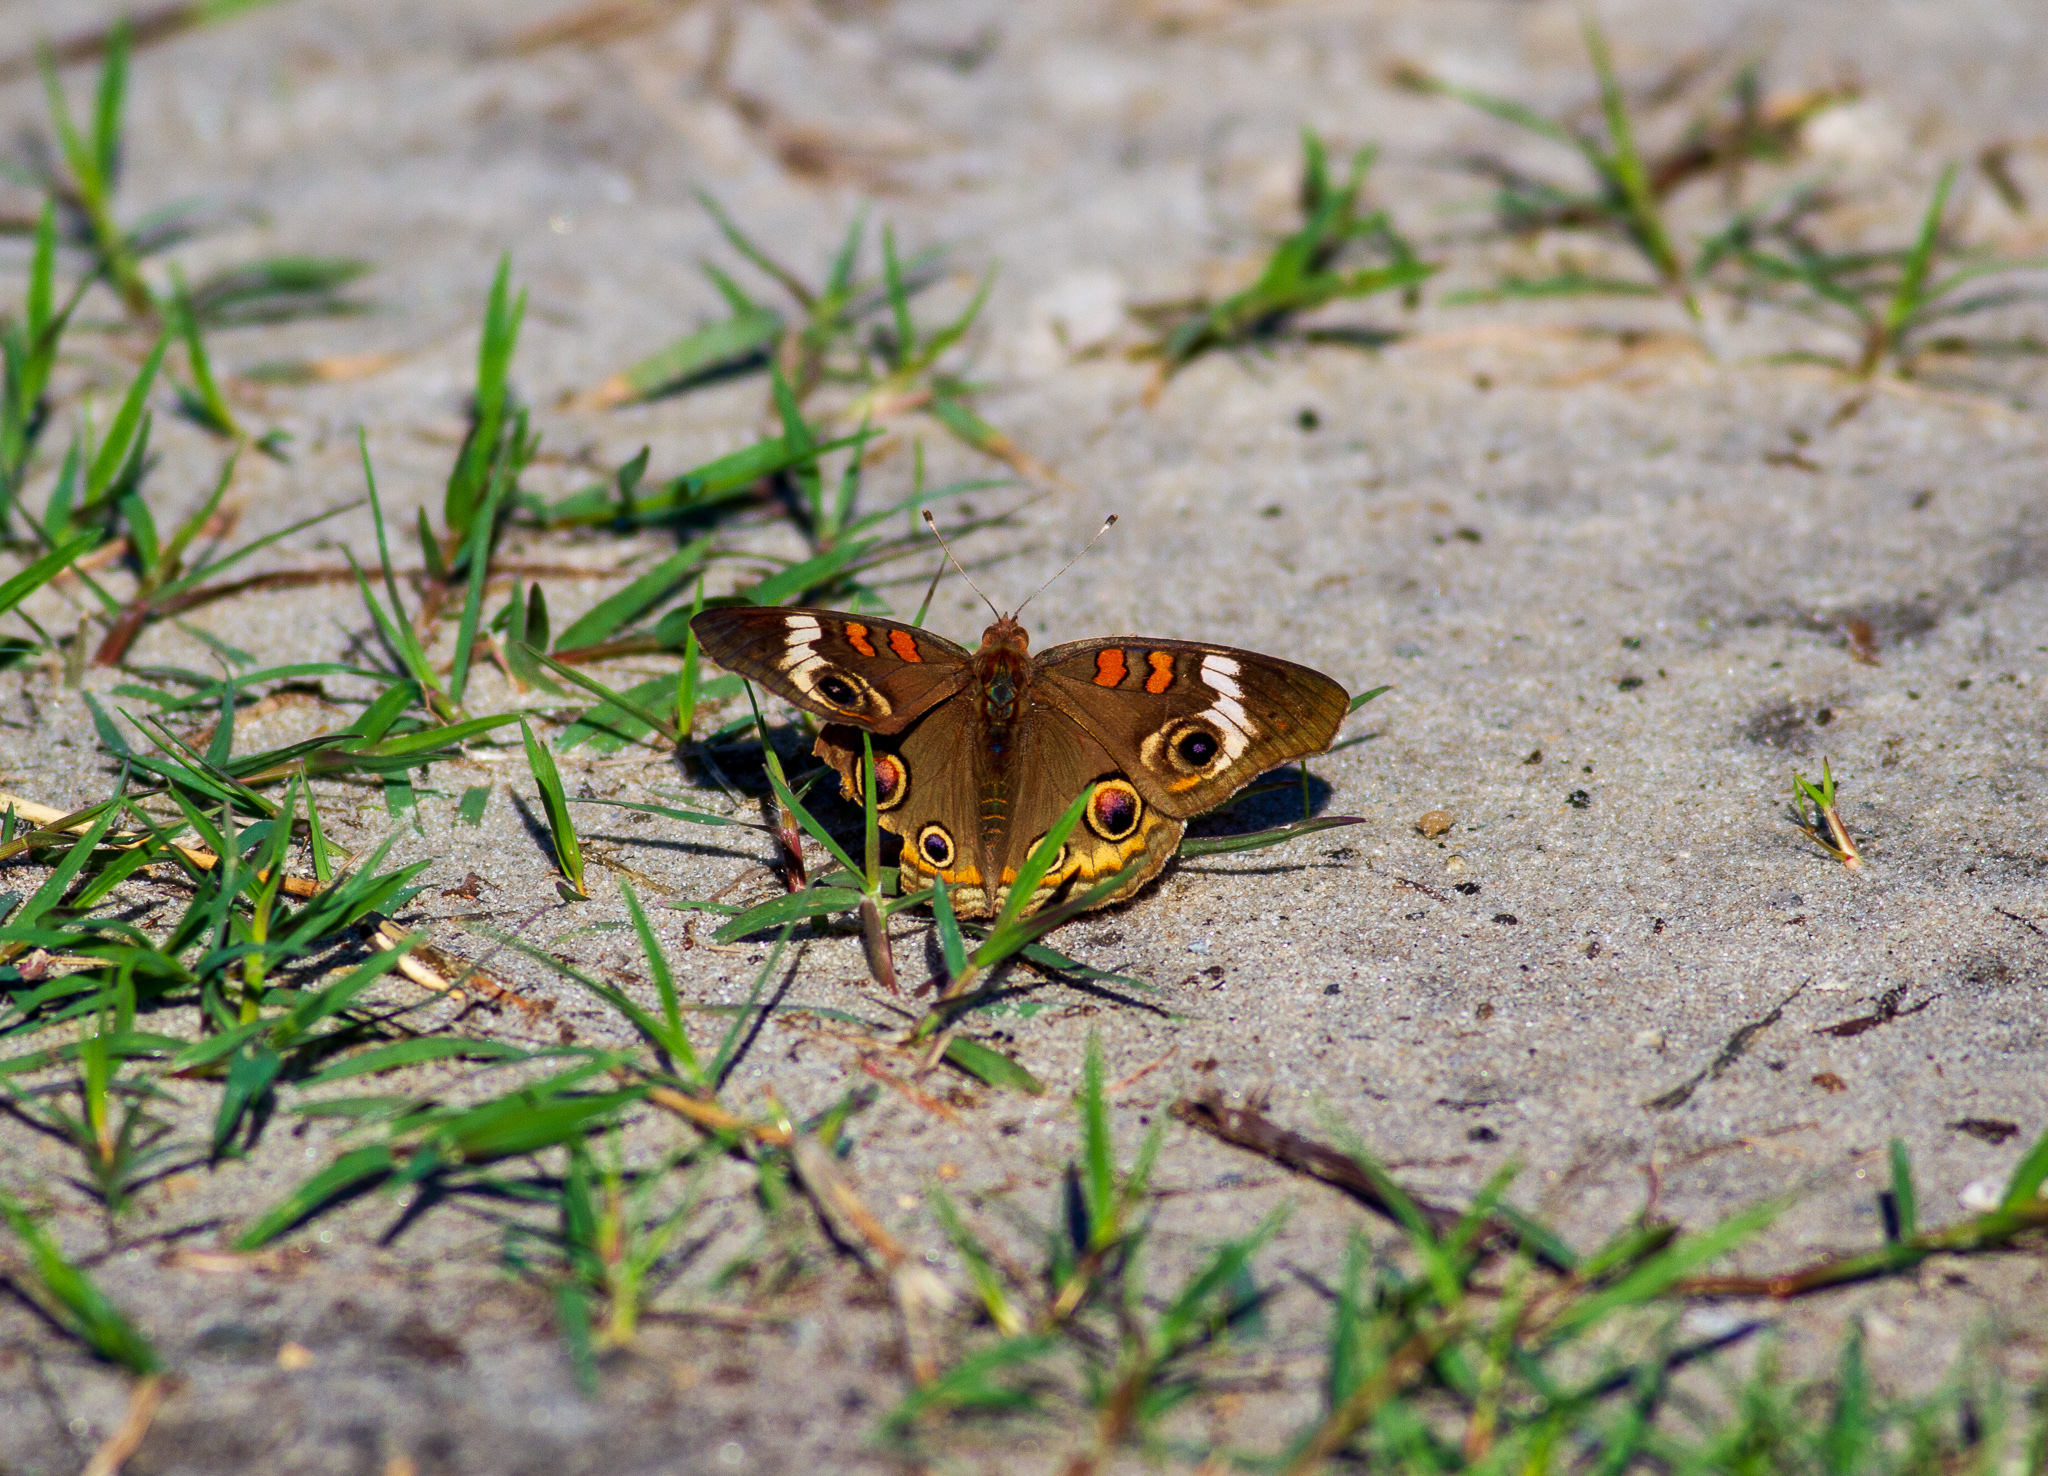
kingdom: Animalia
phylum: Arthropoda
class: Insecta
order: Lepidoptera
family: Nymphalidae
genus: Junonia
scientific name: Junonia coenia
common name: Common buckeye
